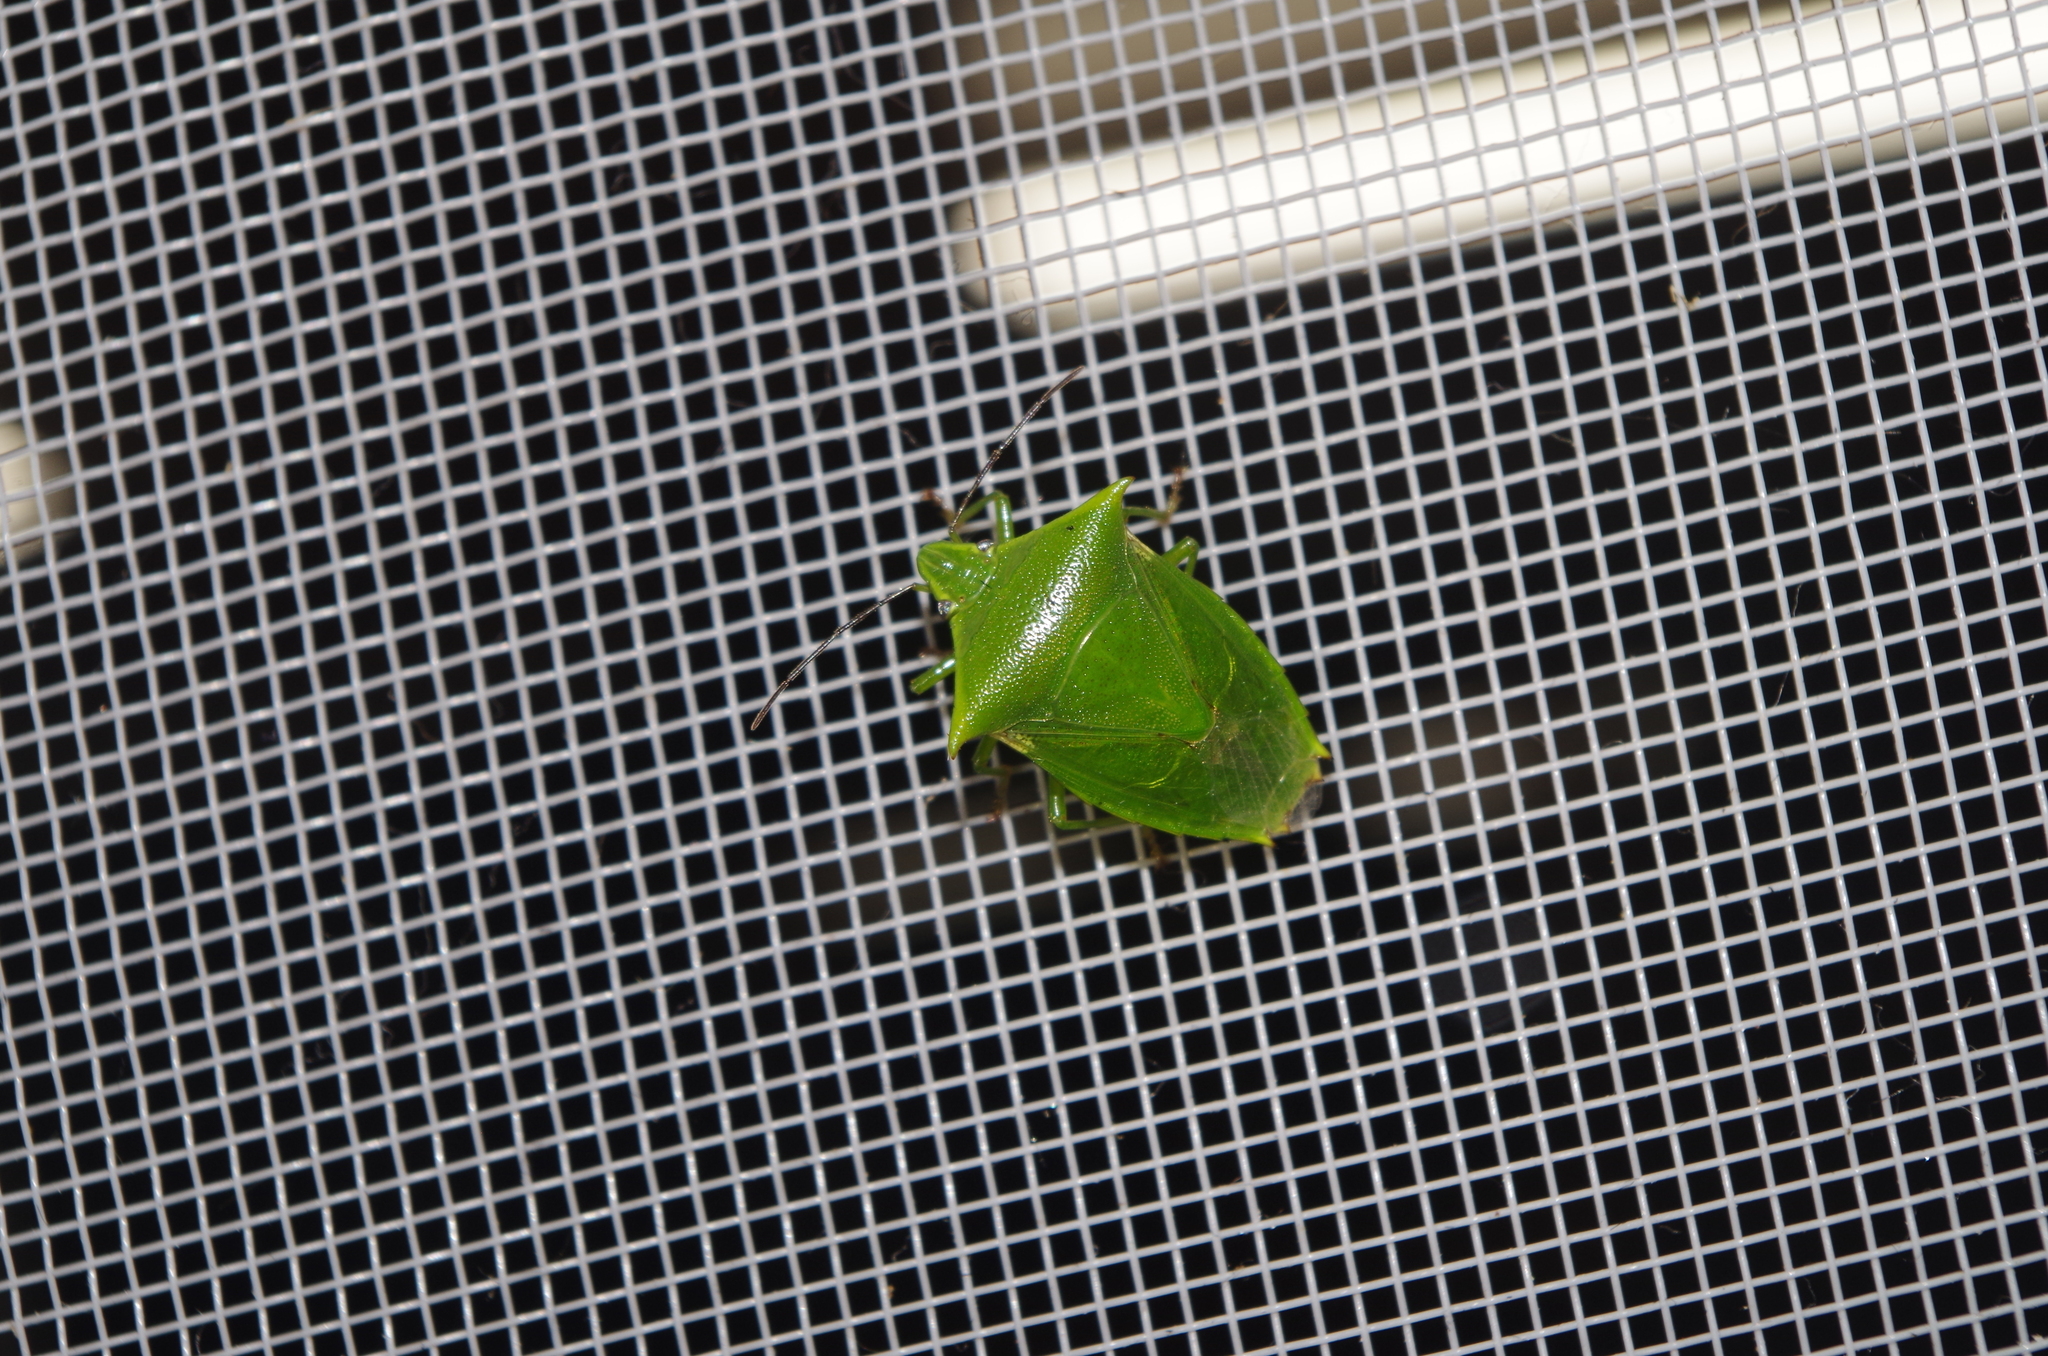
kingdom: Animalia
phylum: Arthropoda
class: Insecta
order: Hemiptera
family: Pentatomidae
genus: Vitellus
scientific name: Vitellus
